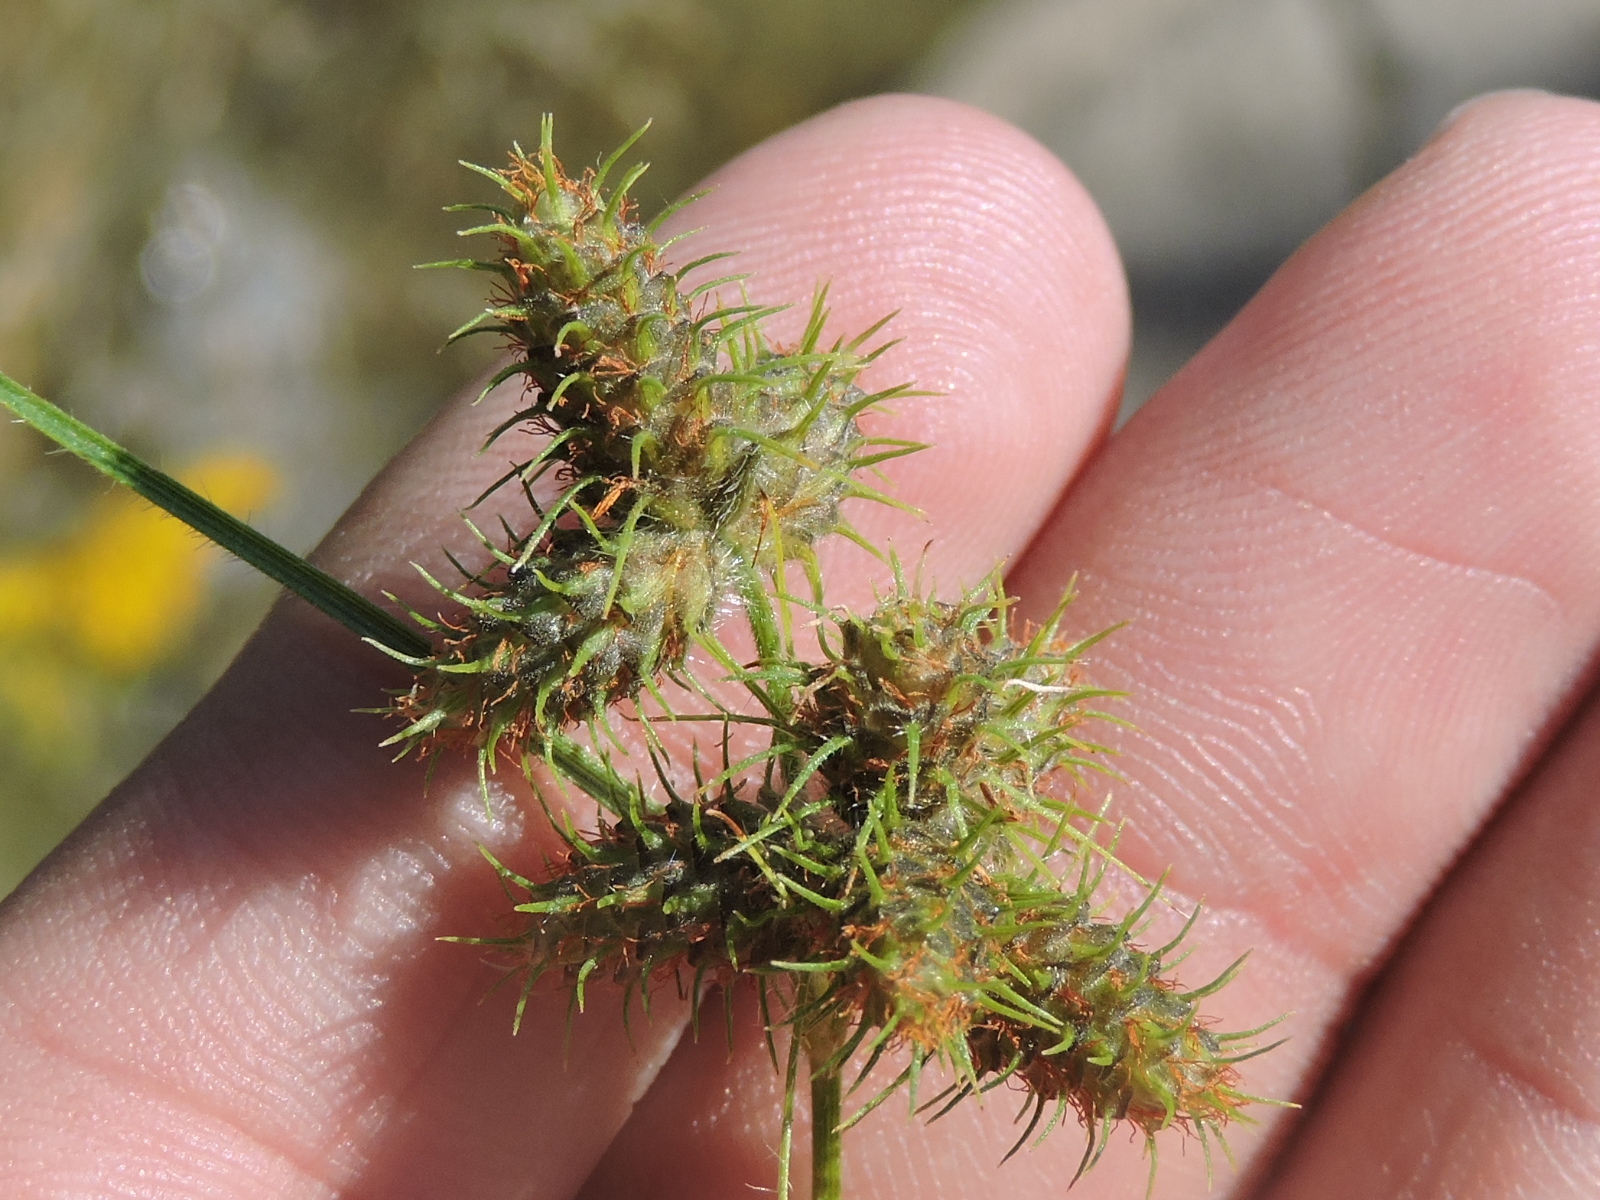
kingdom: Plantae
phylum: Tracheophyta
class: Liliopsida
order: Poales
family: Cyperaceae
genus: Fuirena
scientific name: Fuirena simplex
